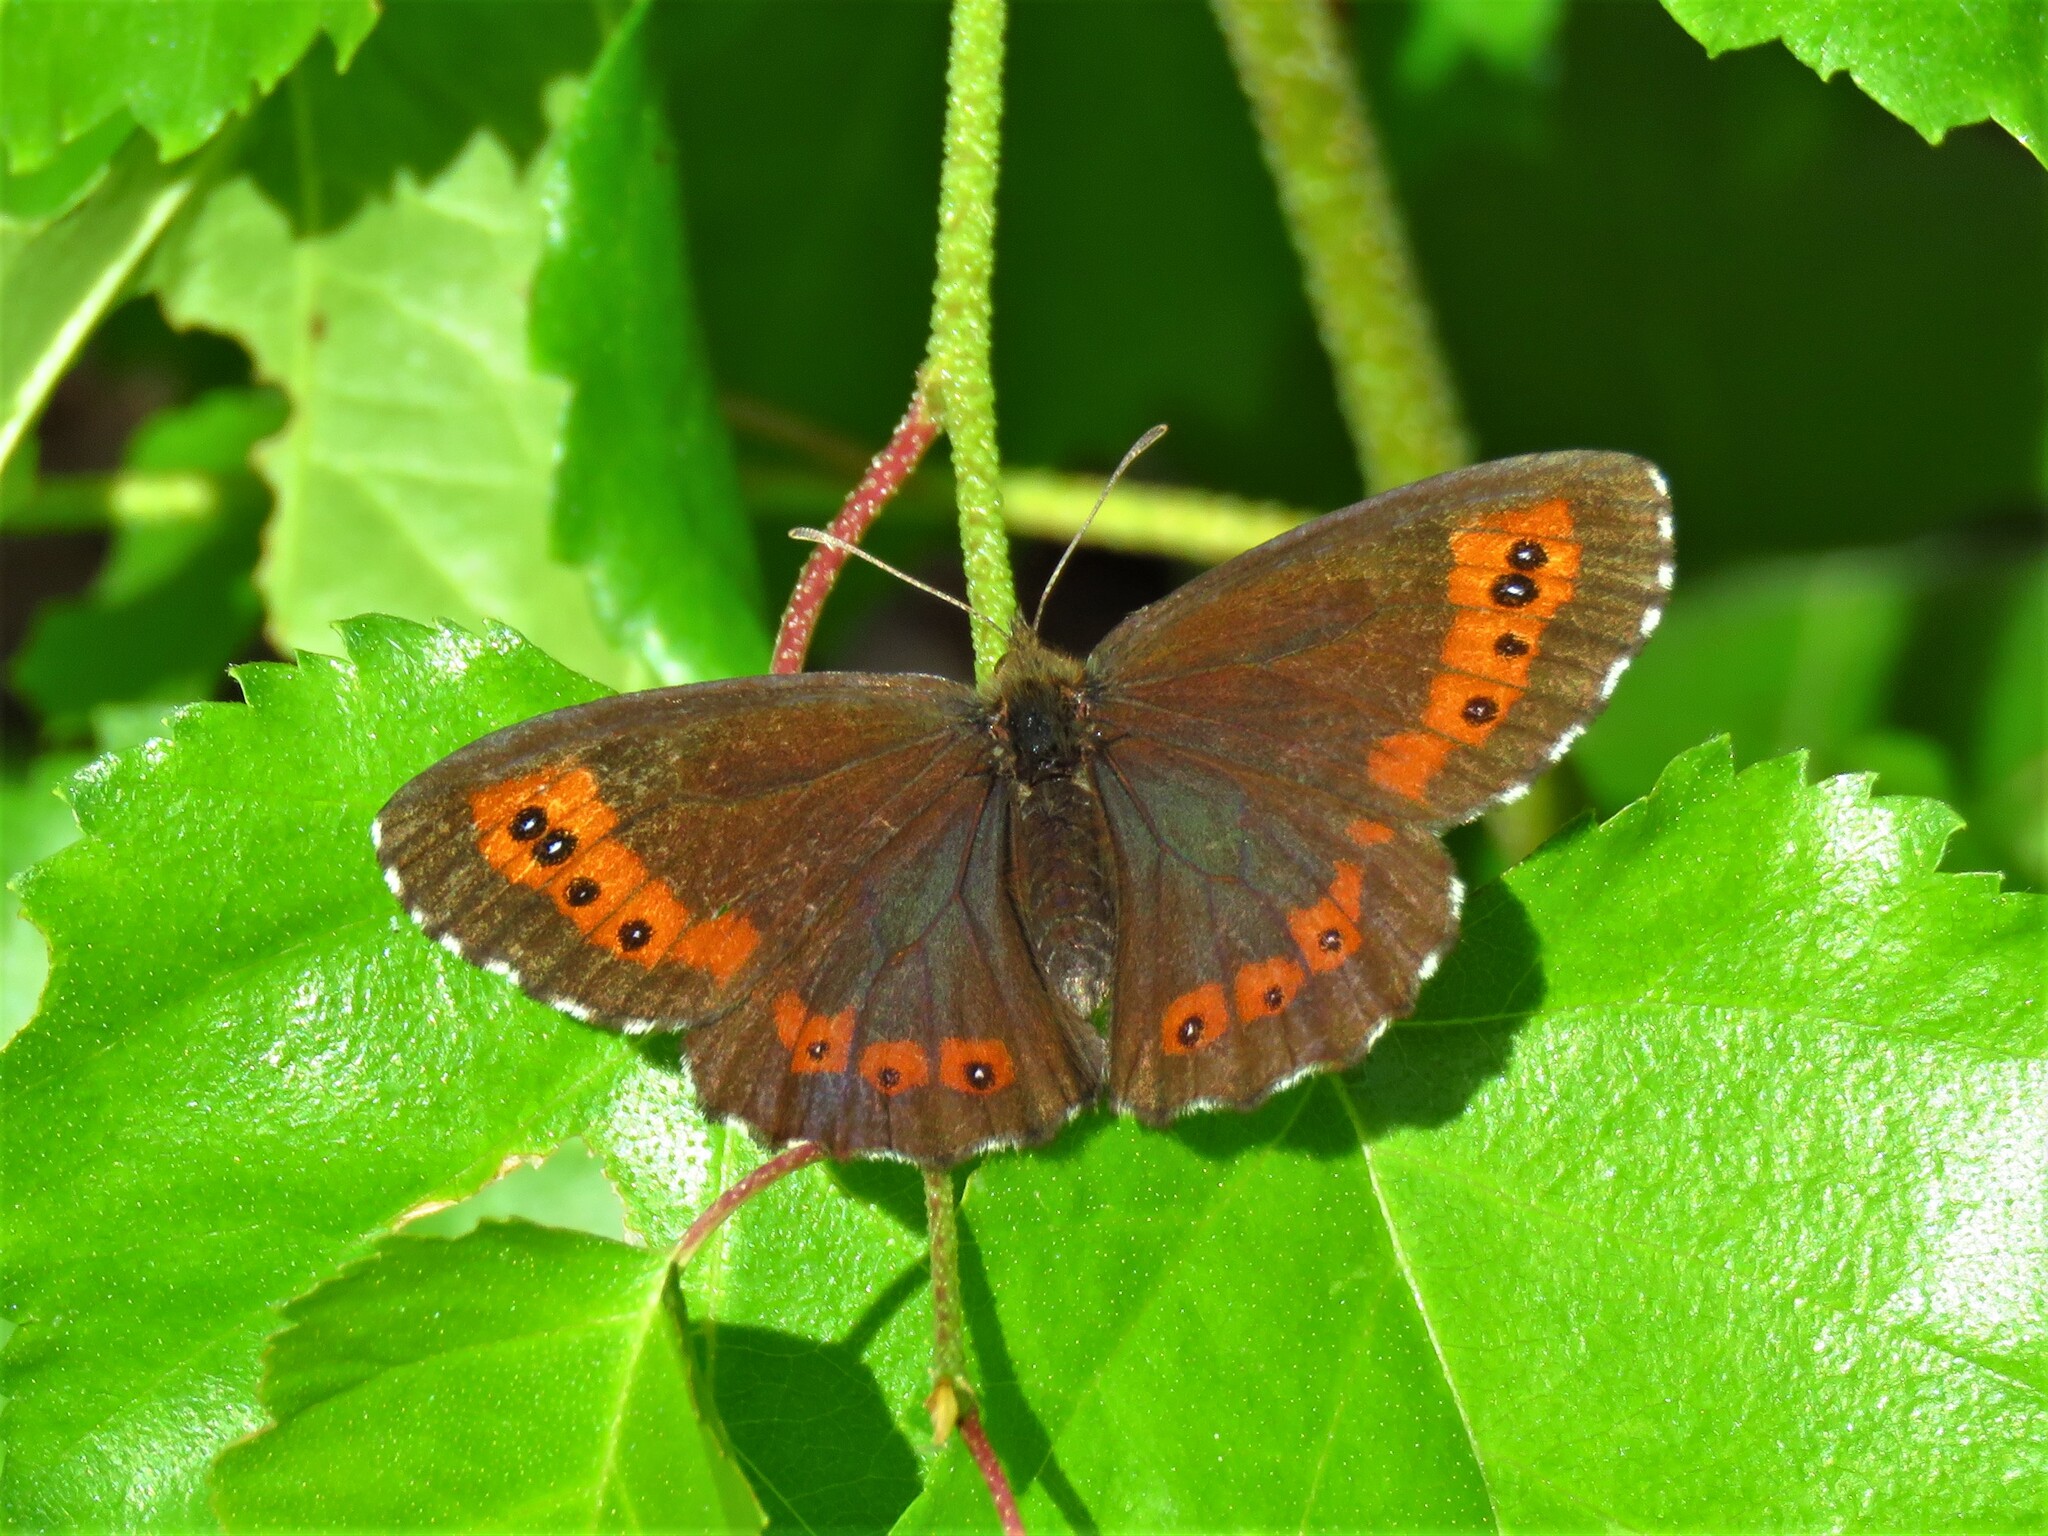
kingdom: Animalia
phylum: Arthropoda
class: Insecta
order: Lepidoptera
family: Nymphalidae
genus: Erebia
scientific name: Erebia ligea
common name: Arran brown
